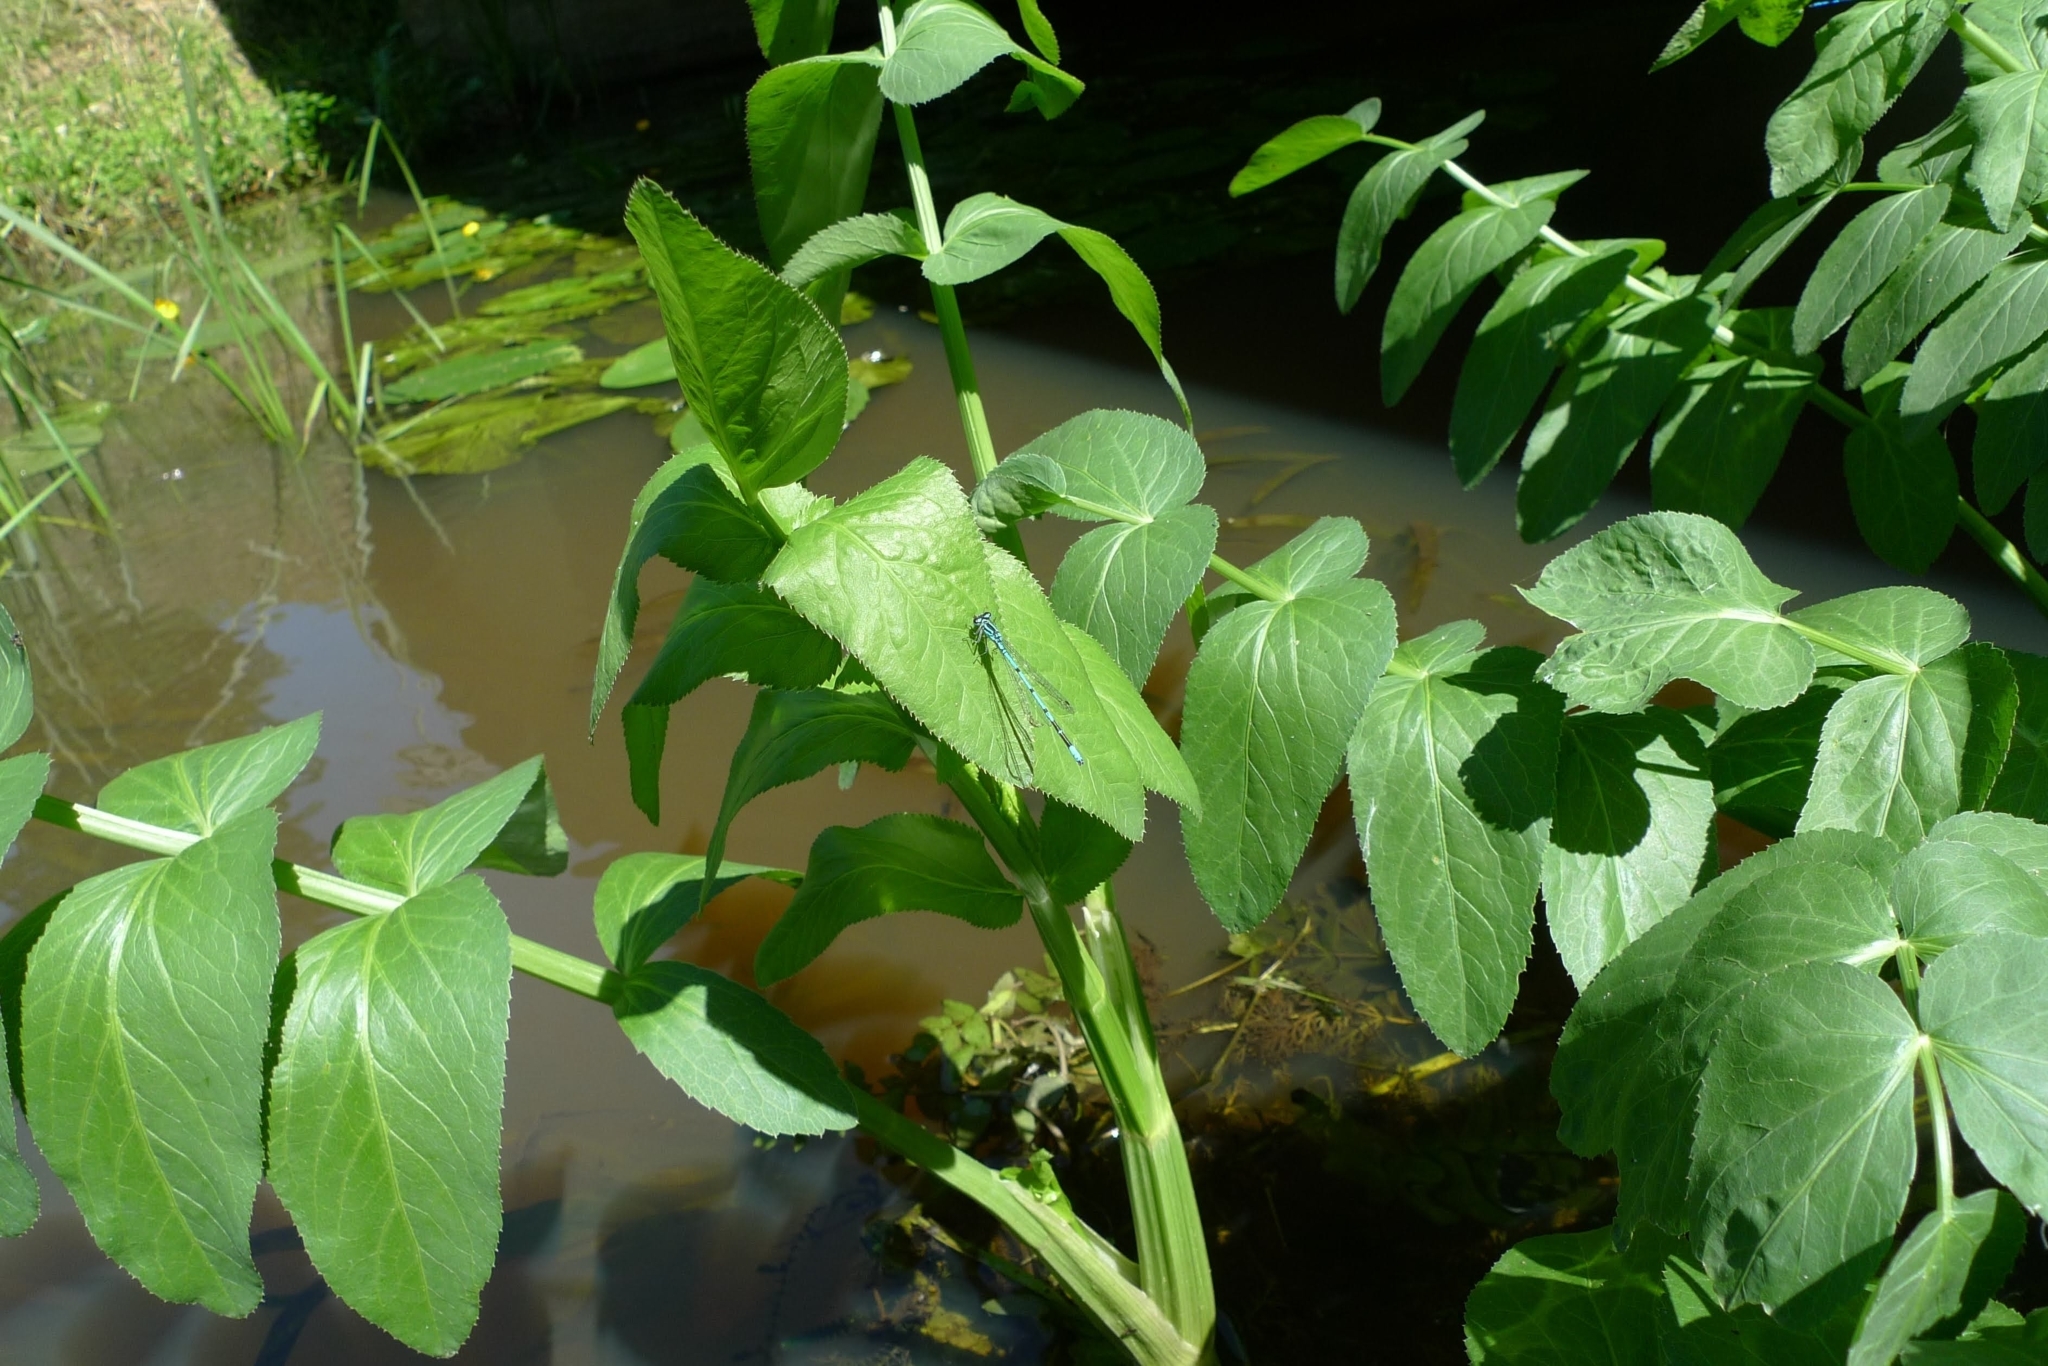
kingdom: Plantae
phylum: Tracheophyta
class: Magnoliopsida
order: Apiales
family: Apiaceae
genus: Sium
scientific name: Sium latifolium
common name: Greater water-parsnip
